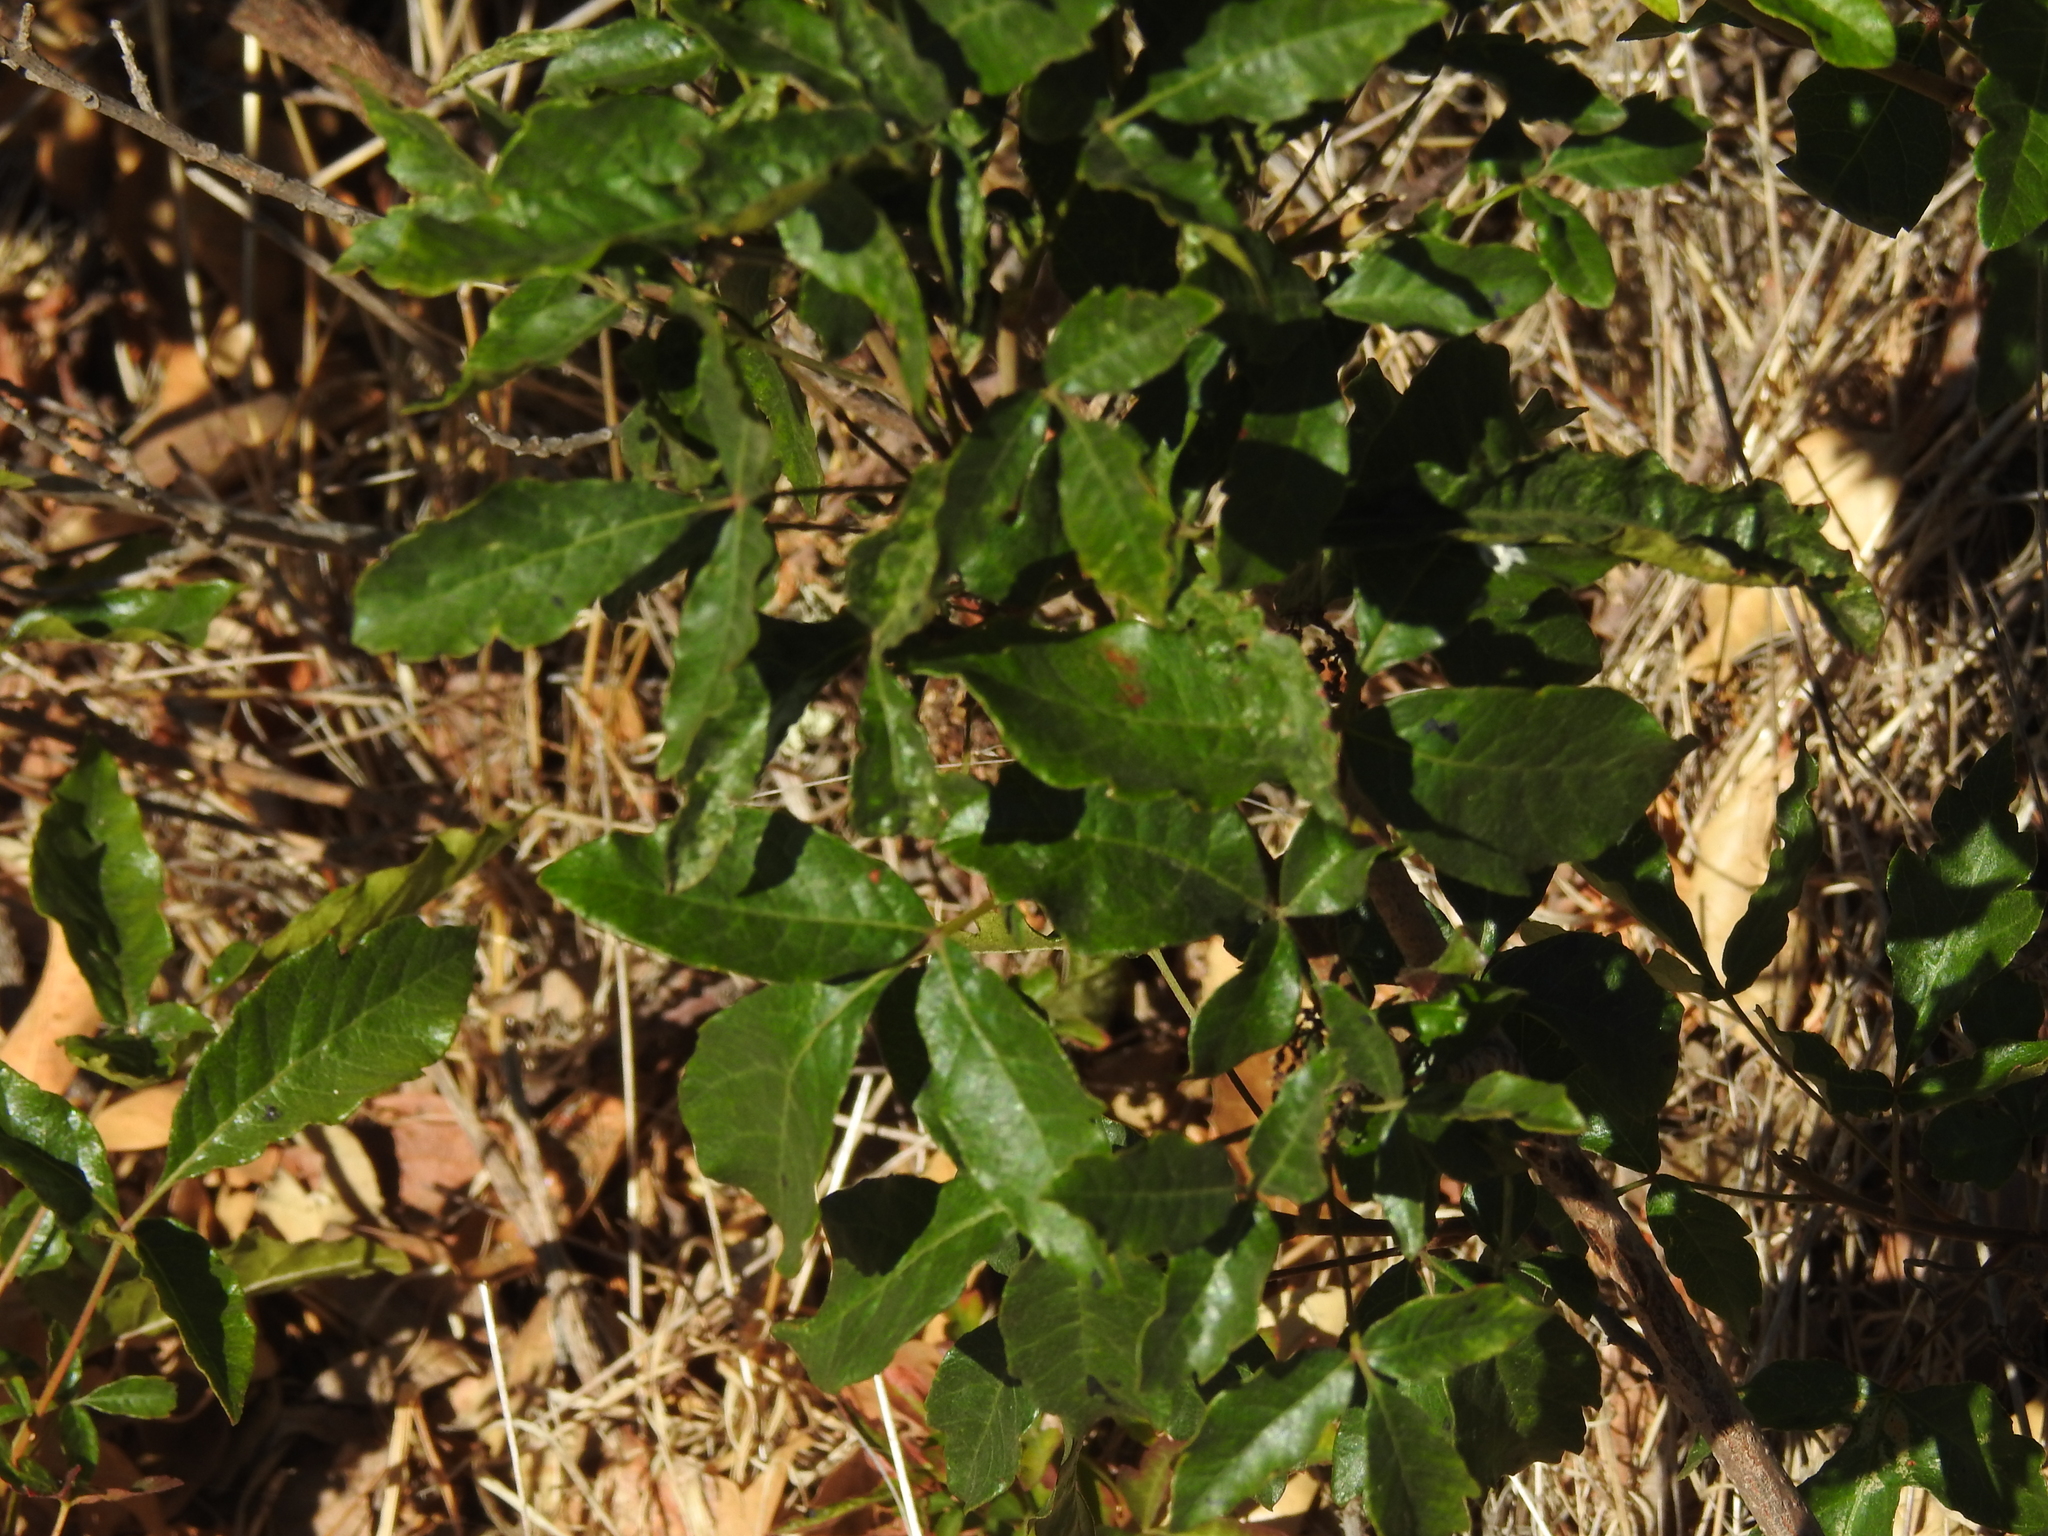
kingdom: Plantae
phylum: Tracheophyta
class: Magnoliopsida
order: Sapindales
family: Anacardiaceae
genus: Toxicodendron
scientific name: Toxicodendron diversilobum
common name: Pacific poison-oak
